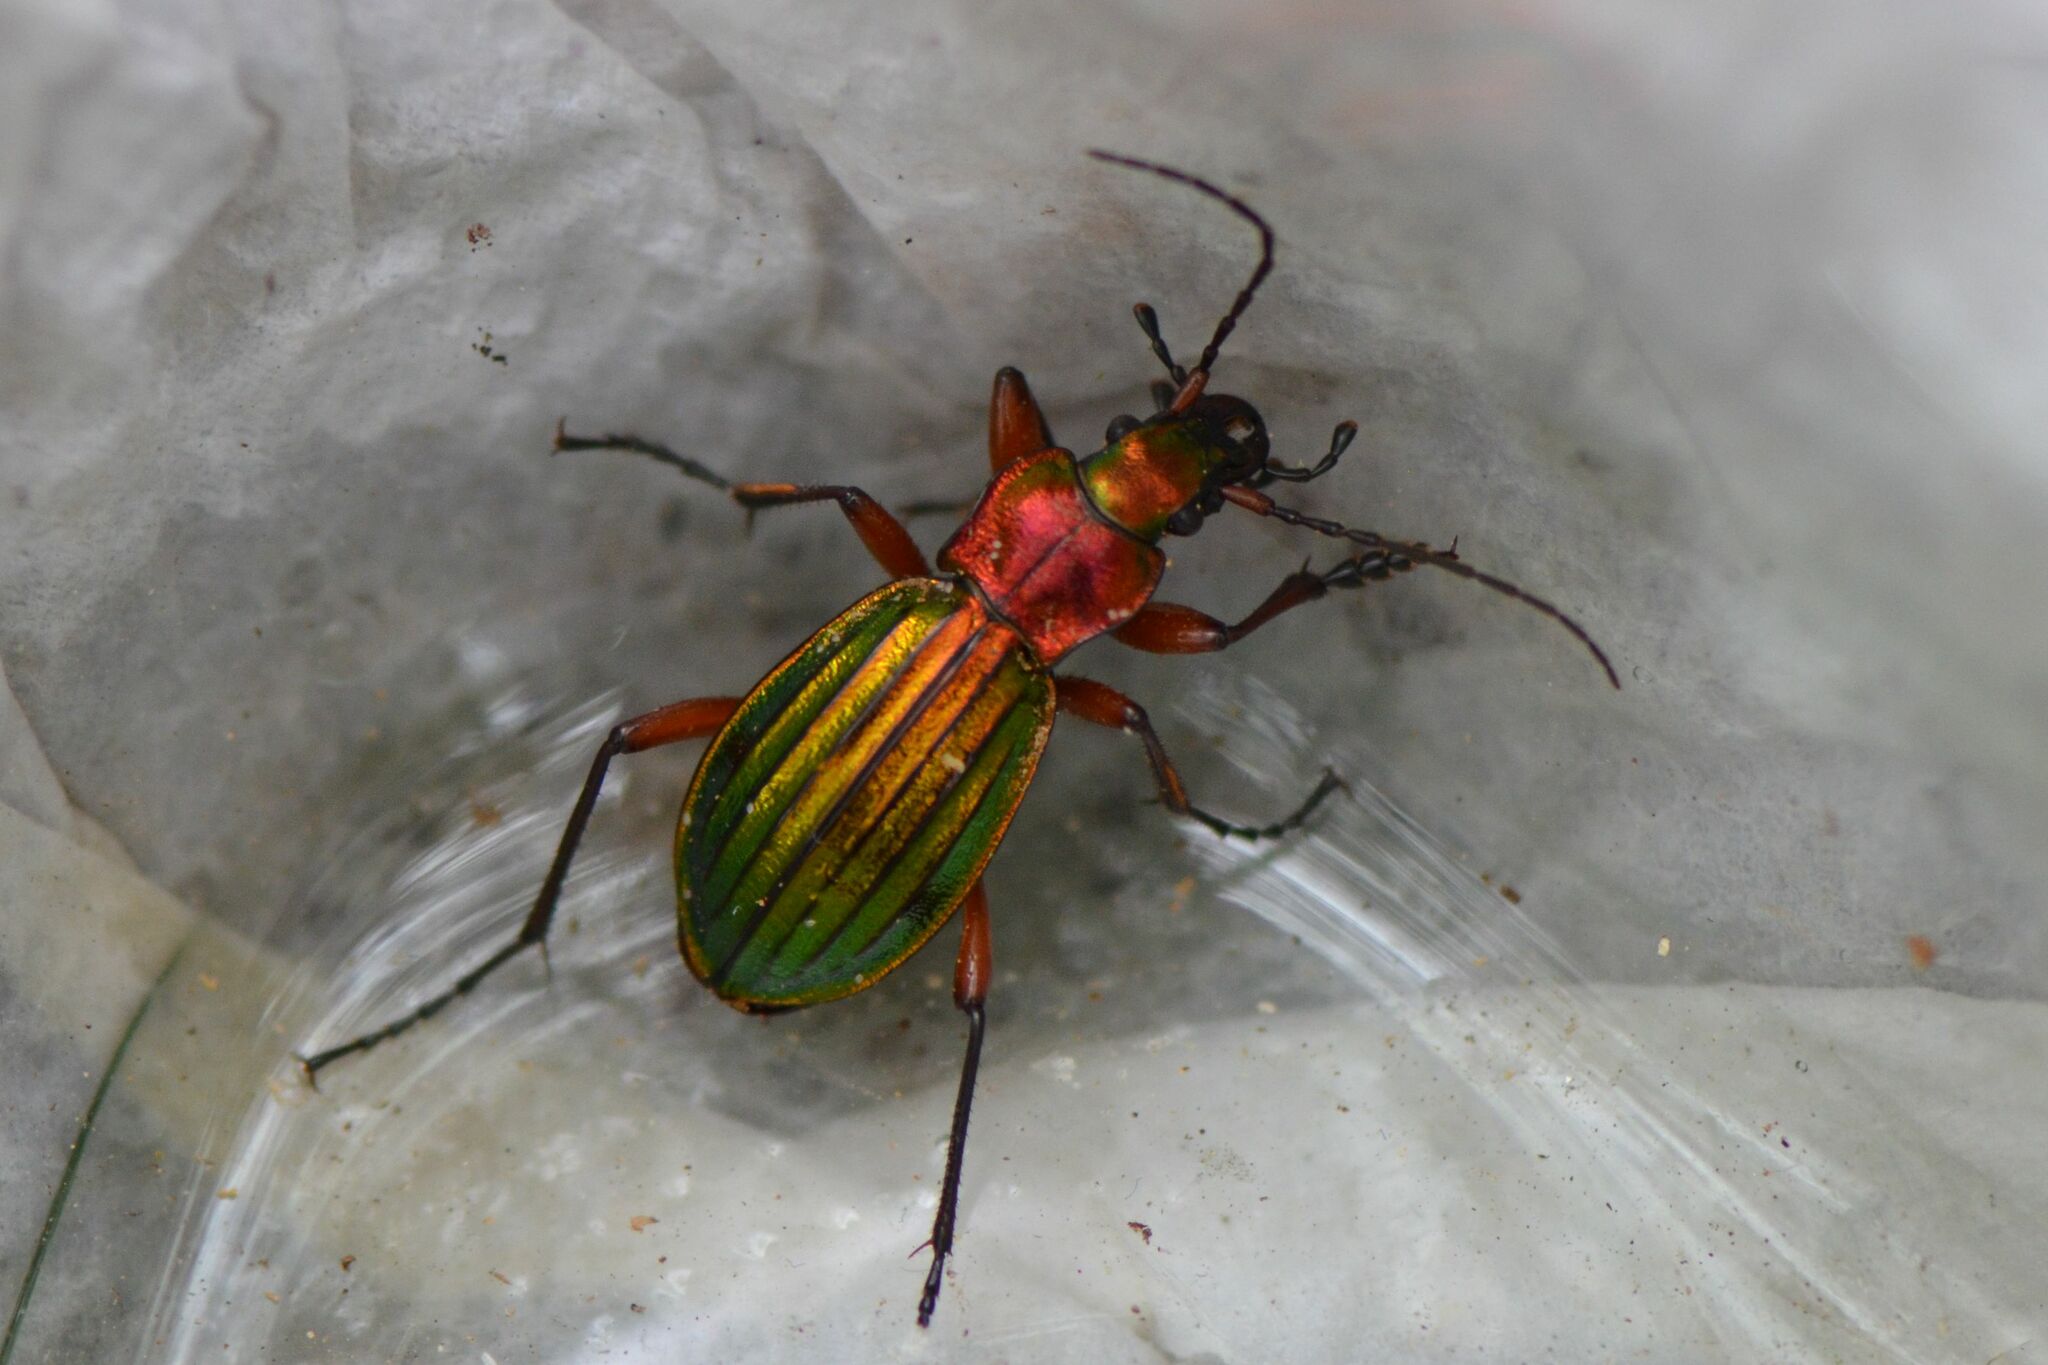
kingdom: Animalia
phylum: Arthropoda
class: Insecta
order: Coleoptera
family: Carabidae
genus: Carabus
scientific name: Carabus auronitens
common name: Carabus auronitens
